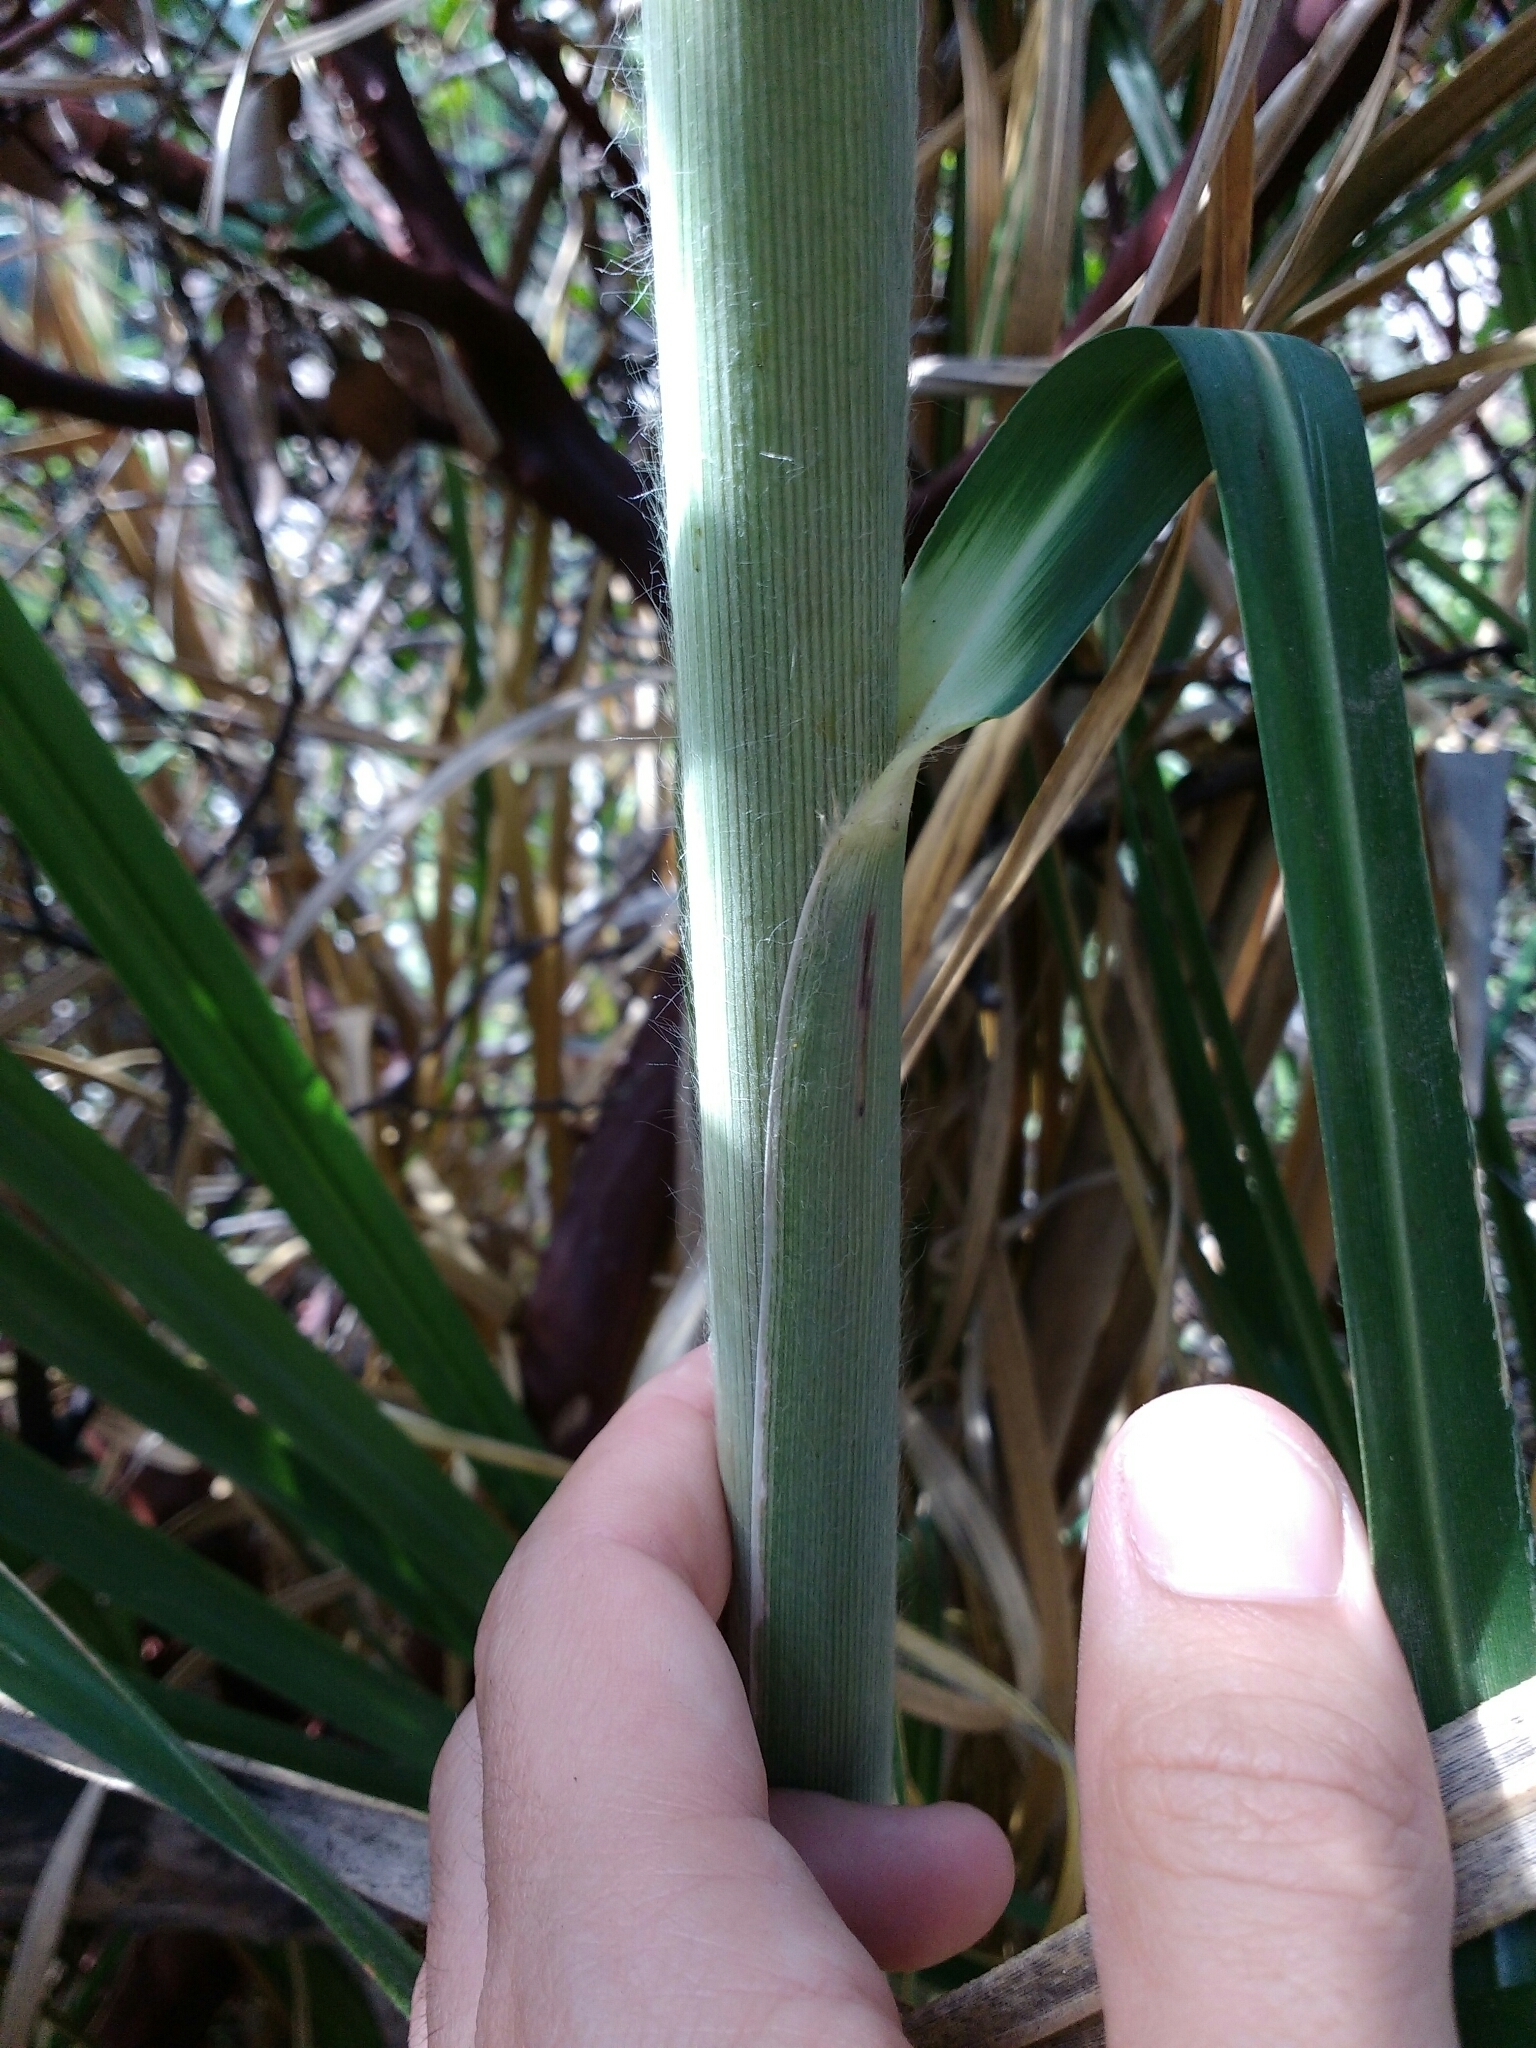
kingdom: Plantae
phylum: Tracheophyta
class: Liliopsida
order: Poales
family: Poaceae
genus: Cortaderia
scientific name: Cortaderia jubata
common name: Purple pampas grass
